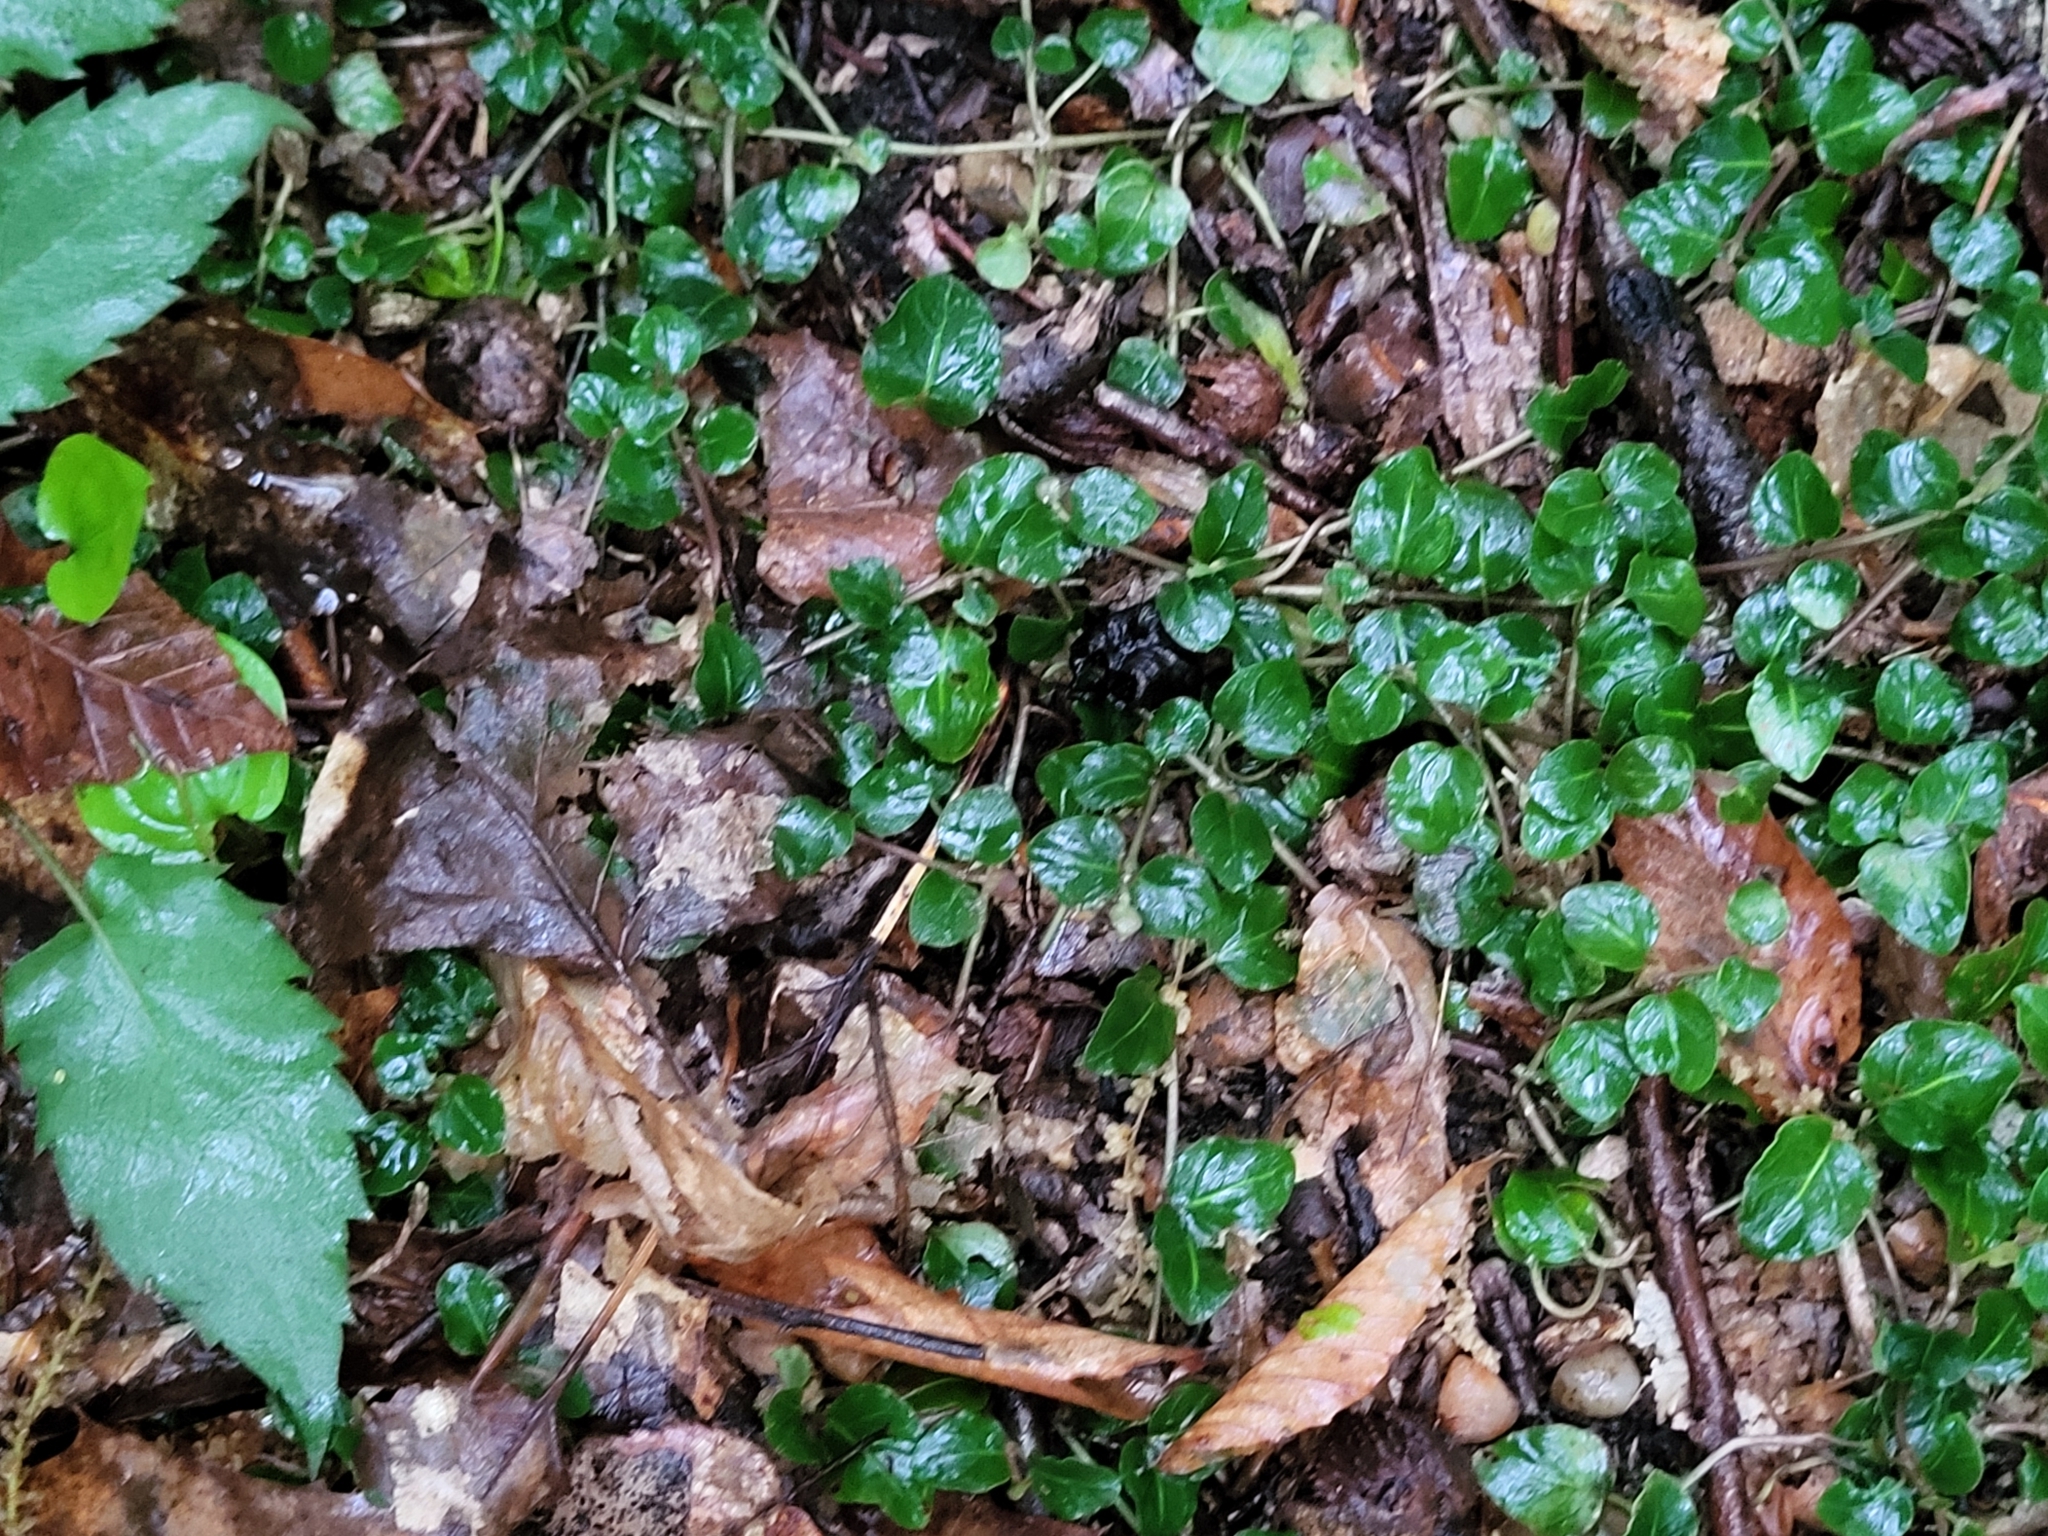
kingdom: Plantae
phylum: Tracheophyta
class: Magnoliopsida
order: Gentianales
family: Rubiaceae
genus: Mitchella
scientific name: Mitchella repens
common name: Partridge-berry
